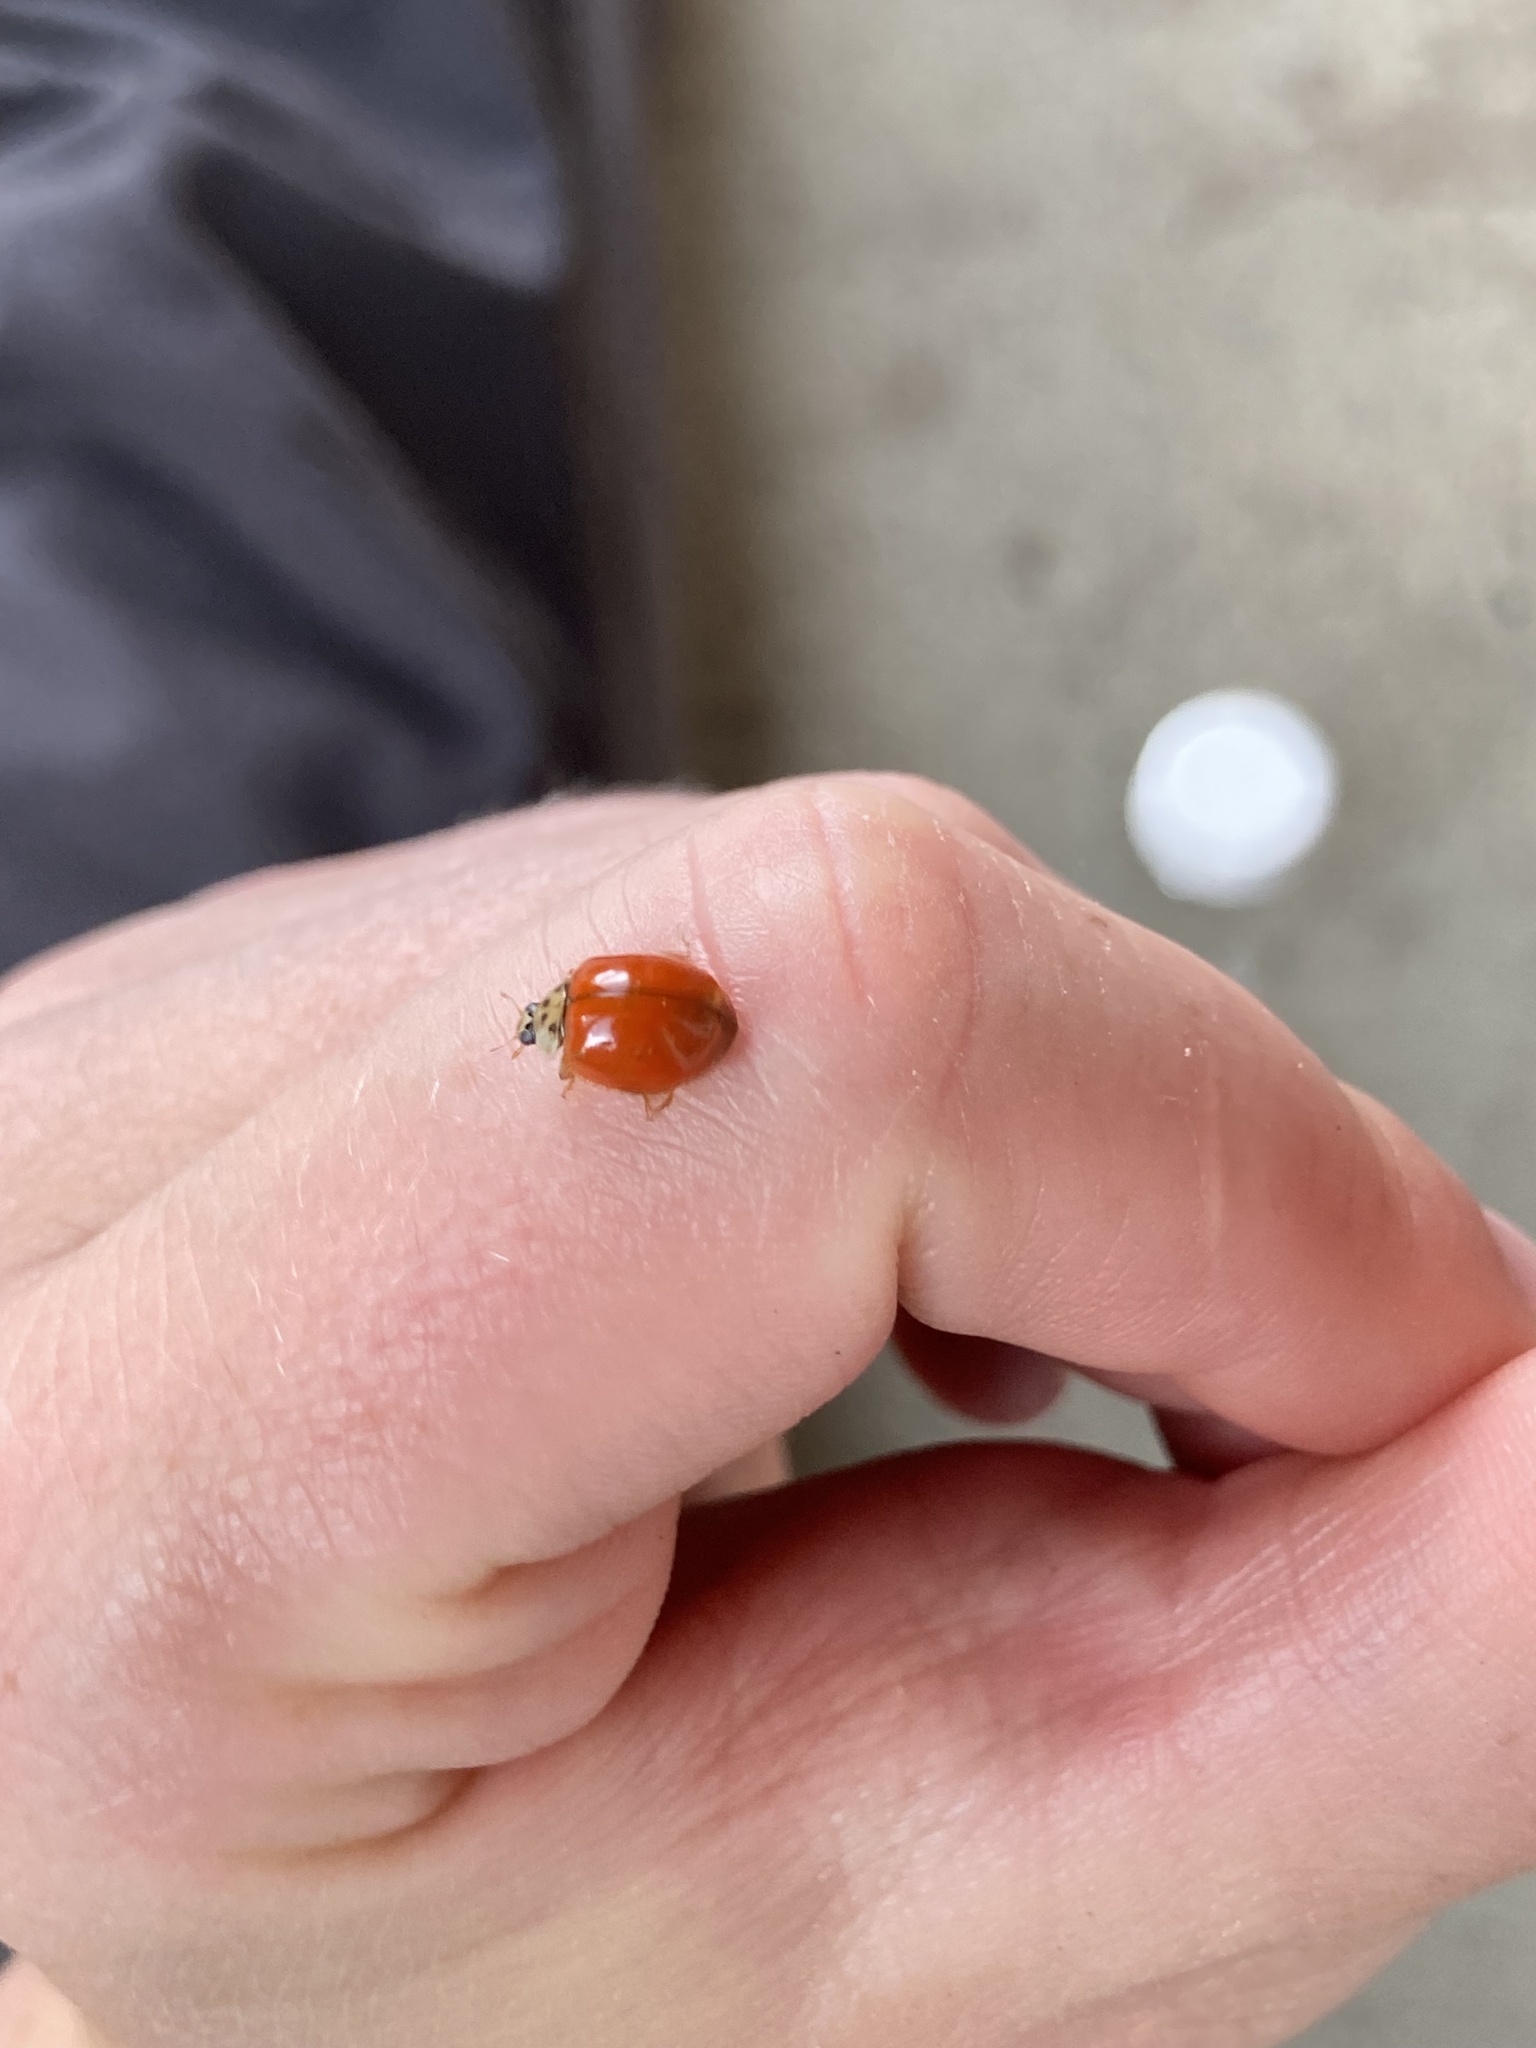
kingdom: Animalia
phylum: Arthropoda
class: Insecta
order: Coleoptera
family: Coccinellidae
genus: Harmonia
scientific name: Harmonia axyridis
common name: Harlequin ladybird
